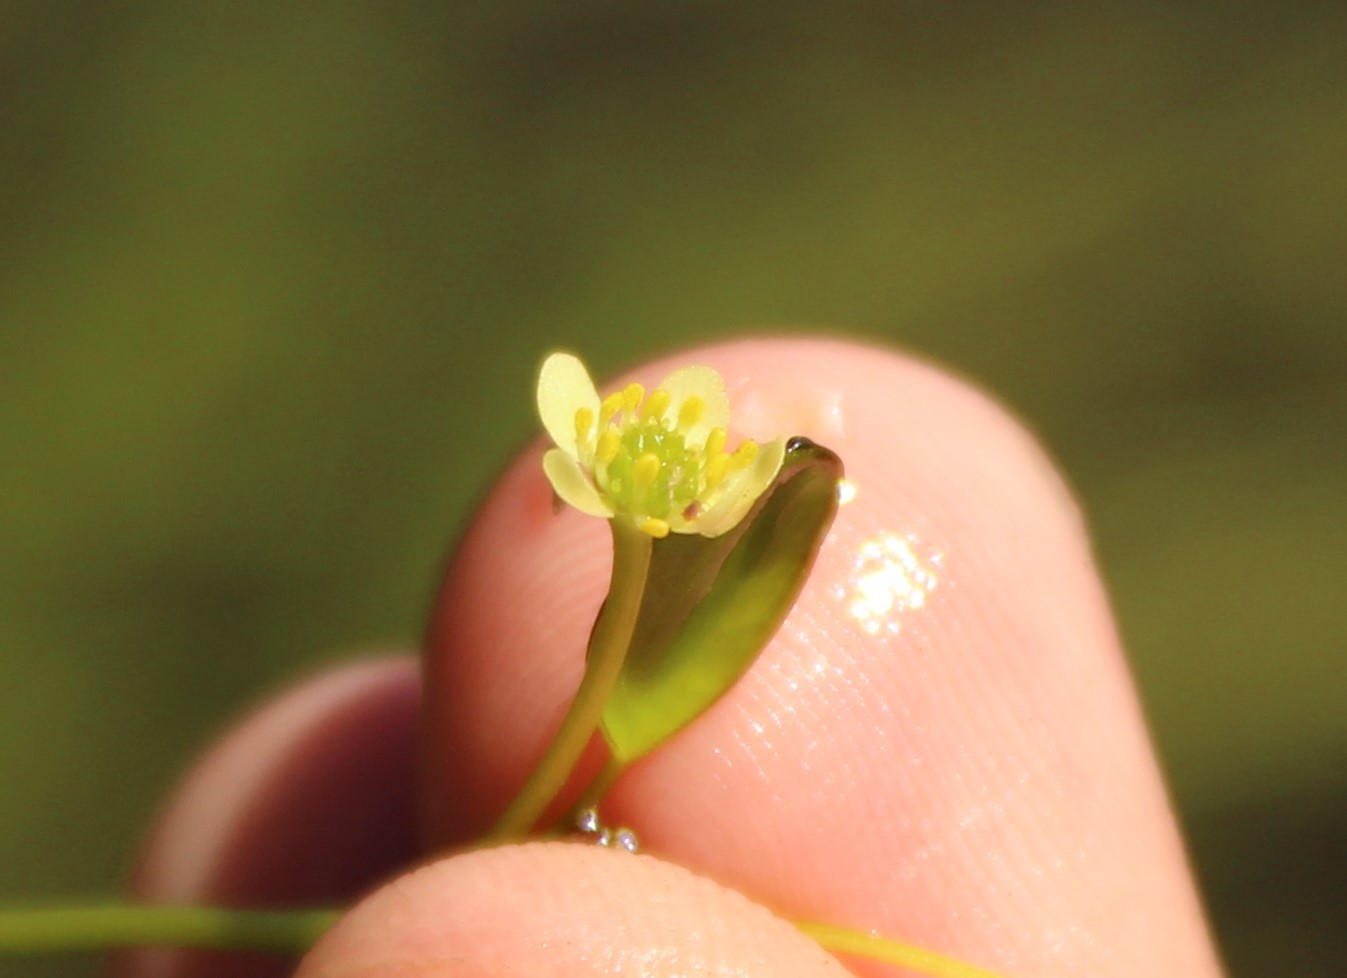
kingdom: Plantae
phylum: Tracheophyta
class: Magnoliopsida
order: Ranunculales
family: Ranunculaceae
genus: Ranunculus
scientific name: Ranunculus limoselloides
